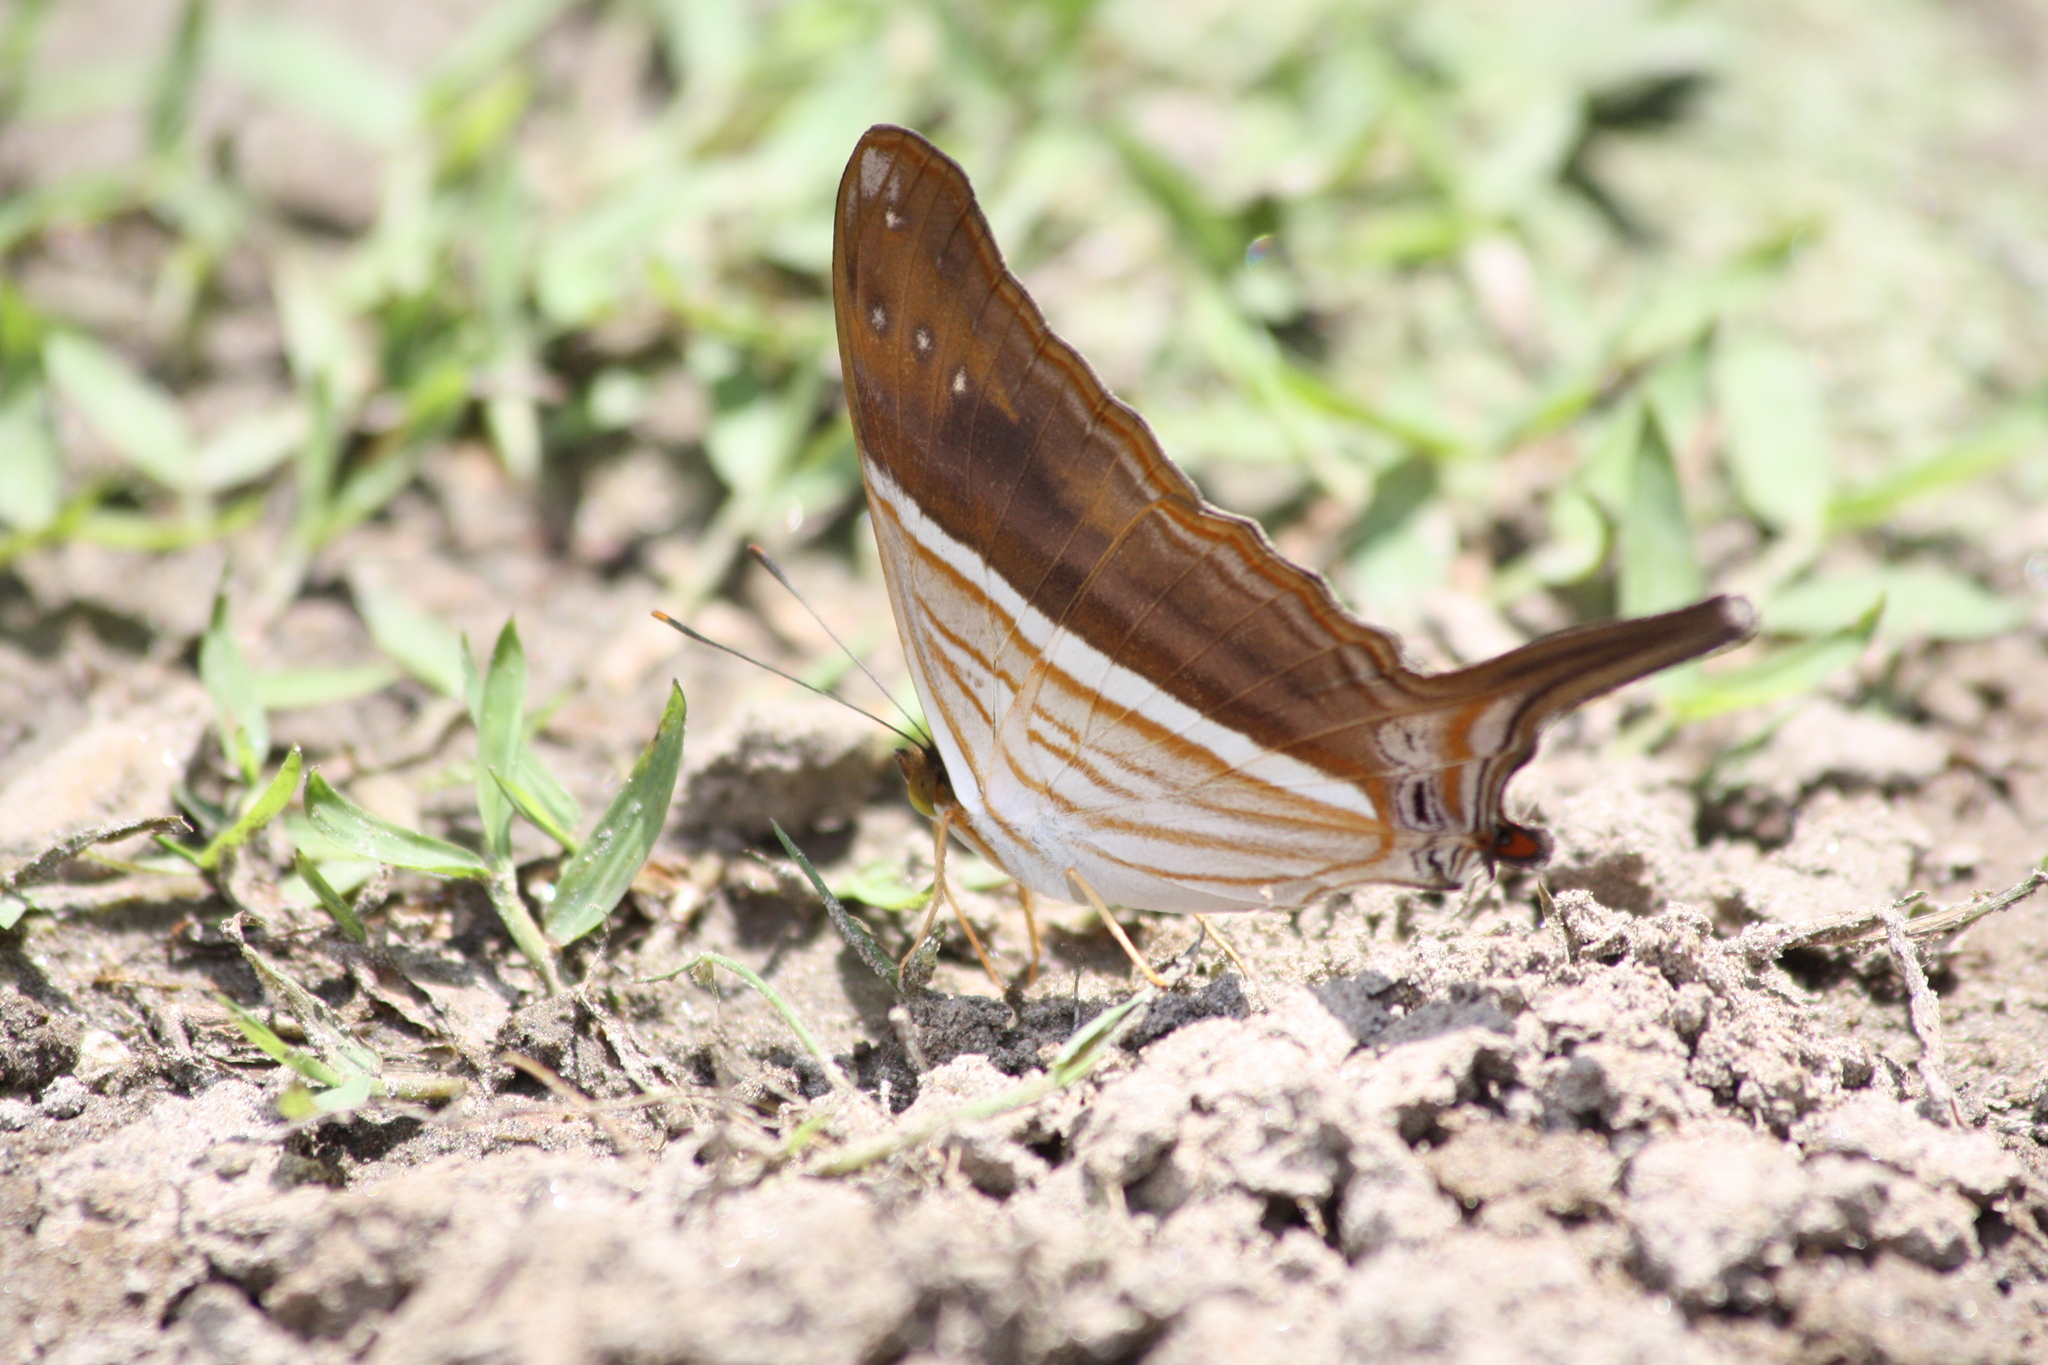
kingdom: Animalia
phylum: Arthropoda
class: Insecta
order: Lepidoptera
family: Nymphalidae
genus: Marpesia
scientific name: Marpesia chiron
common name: Many-banded daggerwing
